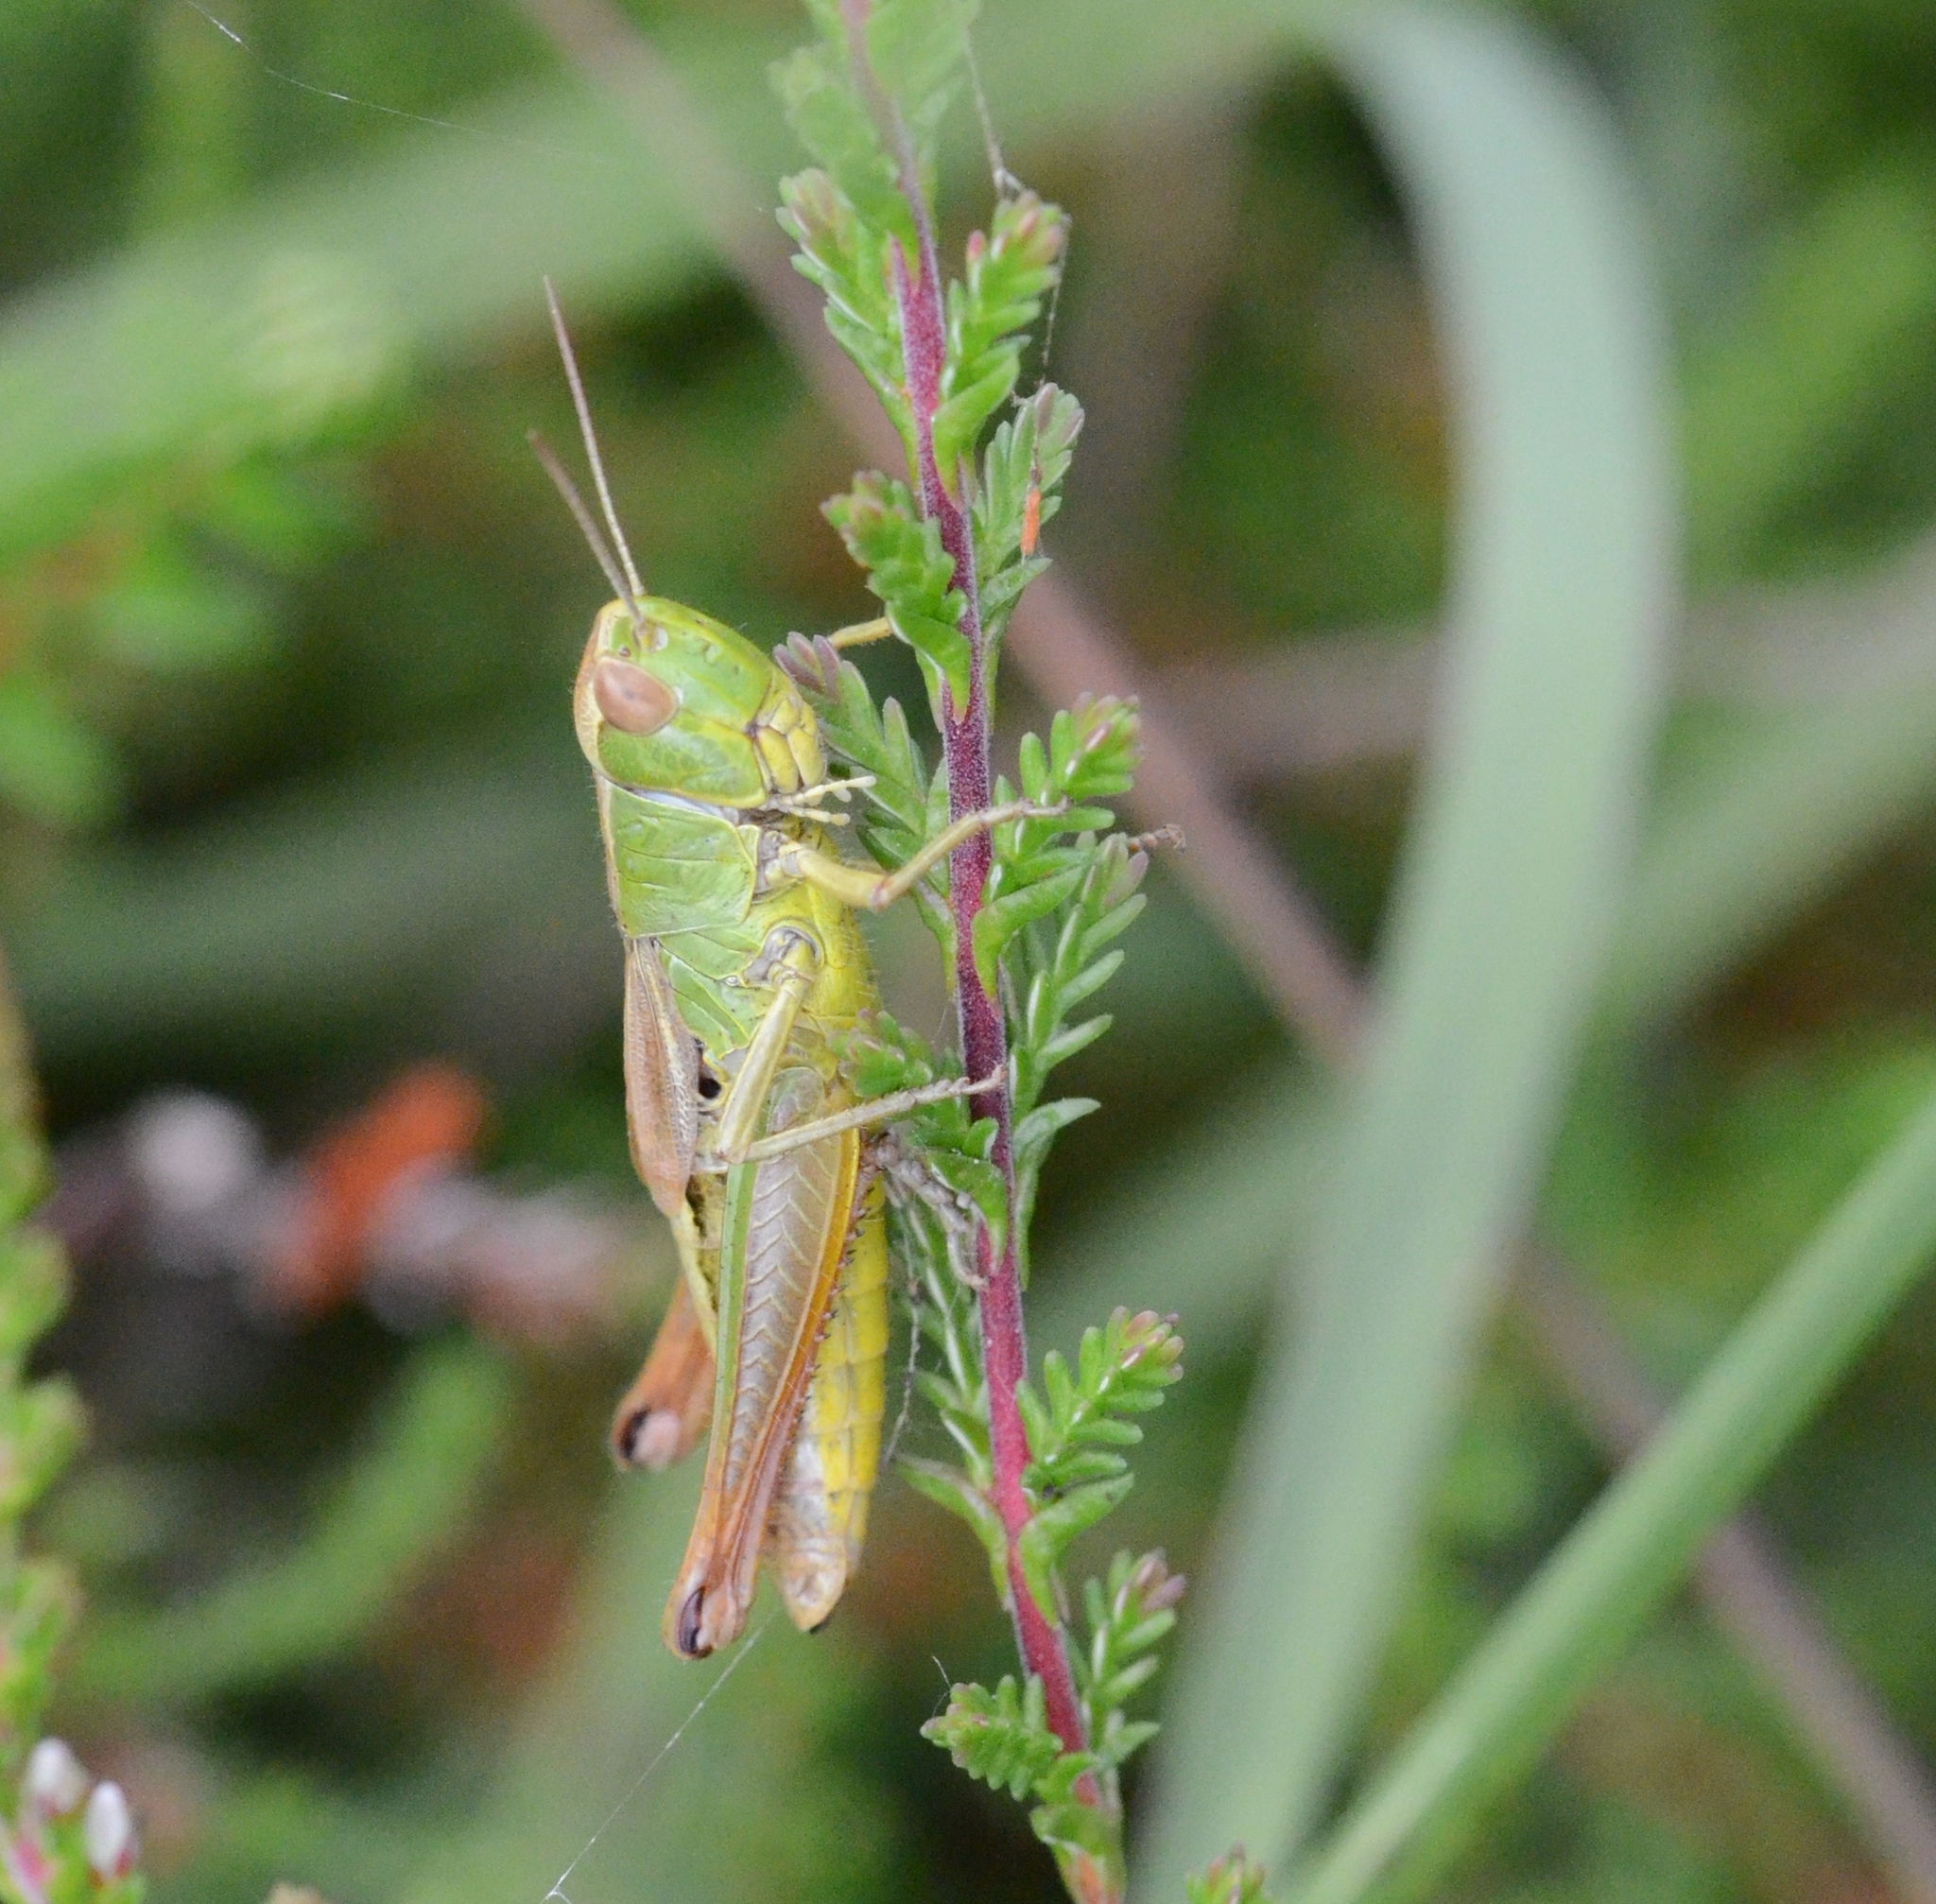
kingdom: Animalia
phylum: Arthropoda
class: Insecta
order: Orthoptera
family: Acrididae
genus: Pseudochorthippus
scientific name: Pseudochorthippus parallelus
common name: Meadow grasshopper
